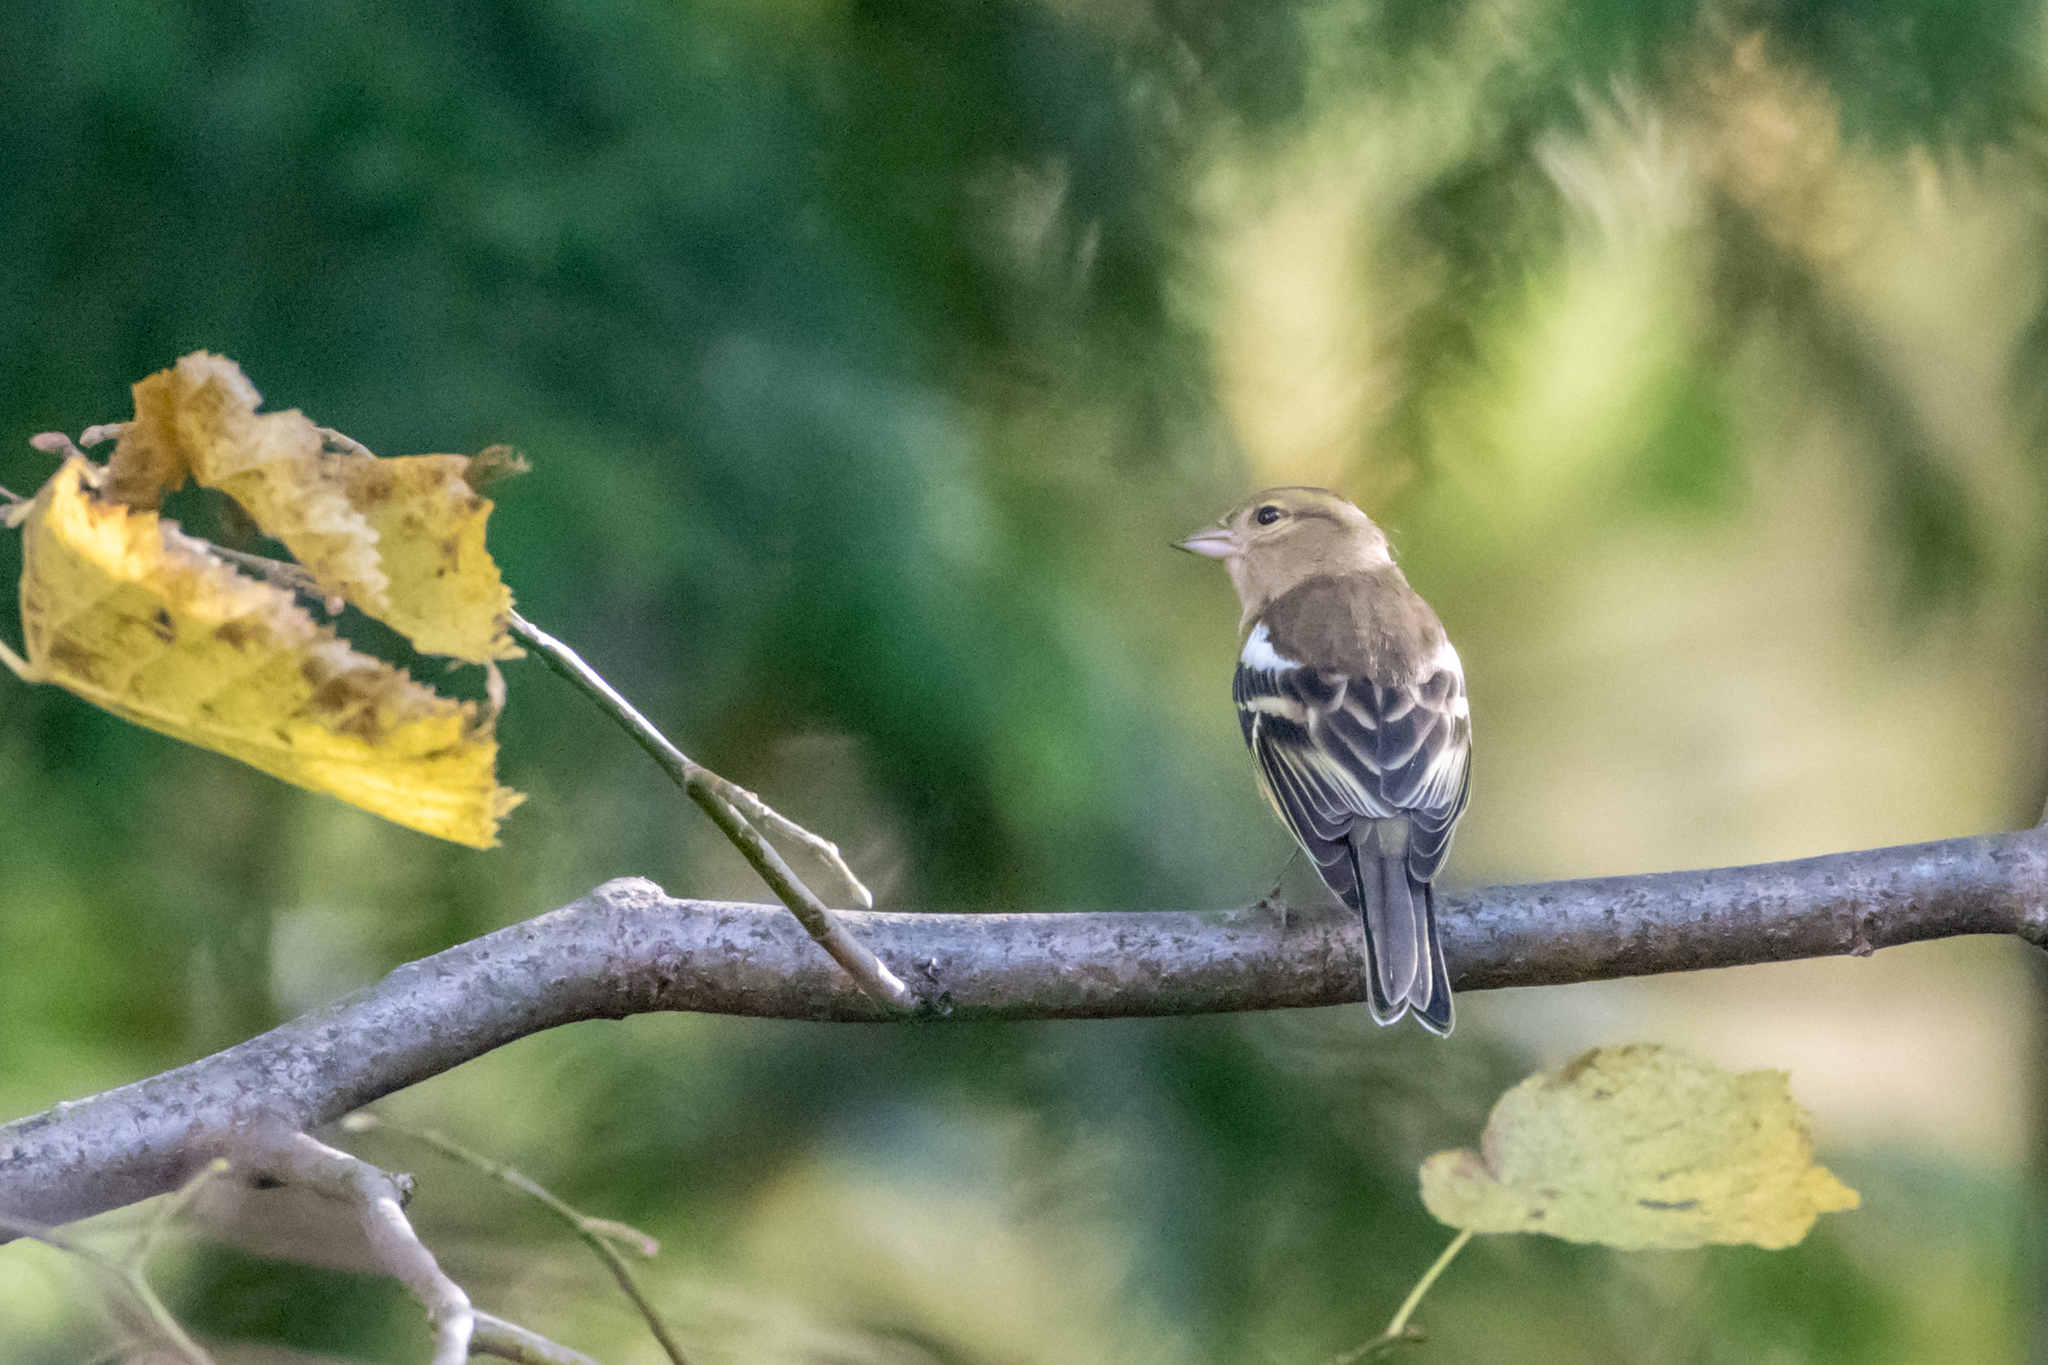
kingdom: Animalia
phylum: Chordata
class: Aves
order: Passeriformes
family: Fringillidae
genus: Fringilla
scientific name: Fringilla coelebs
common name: Common chaffinch
